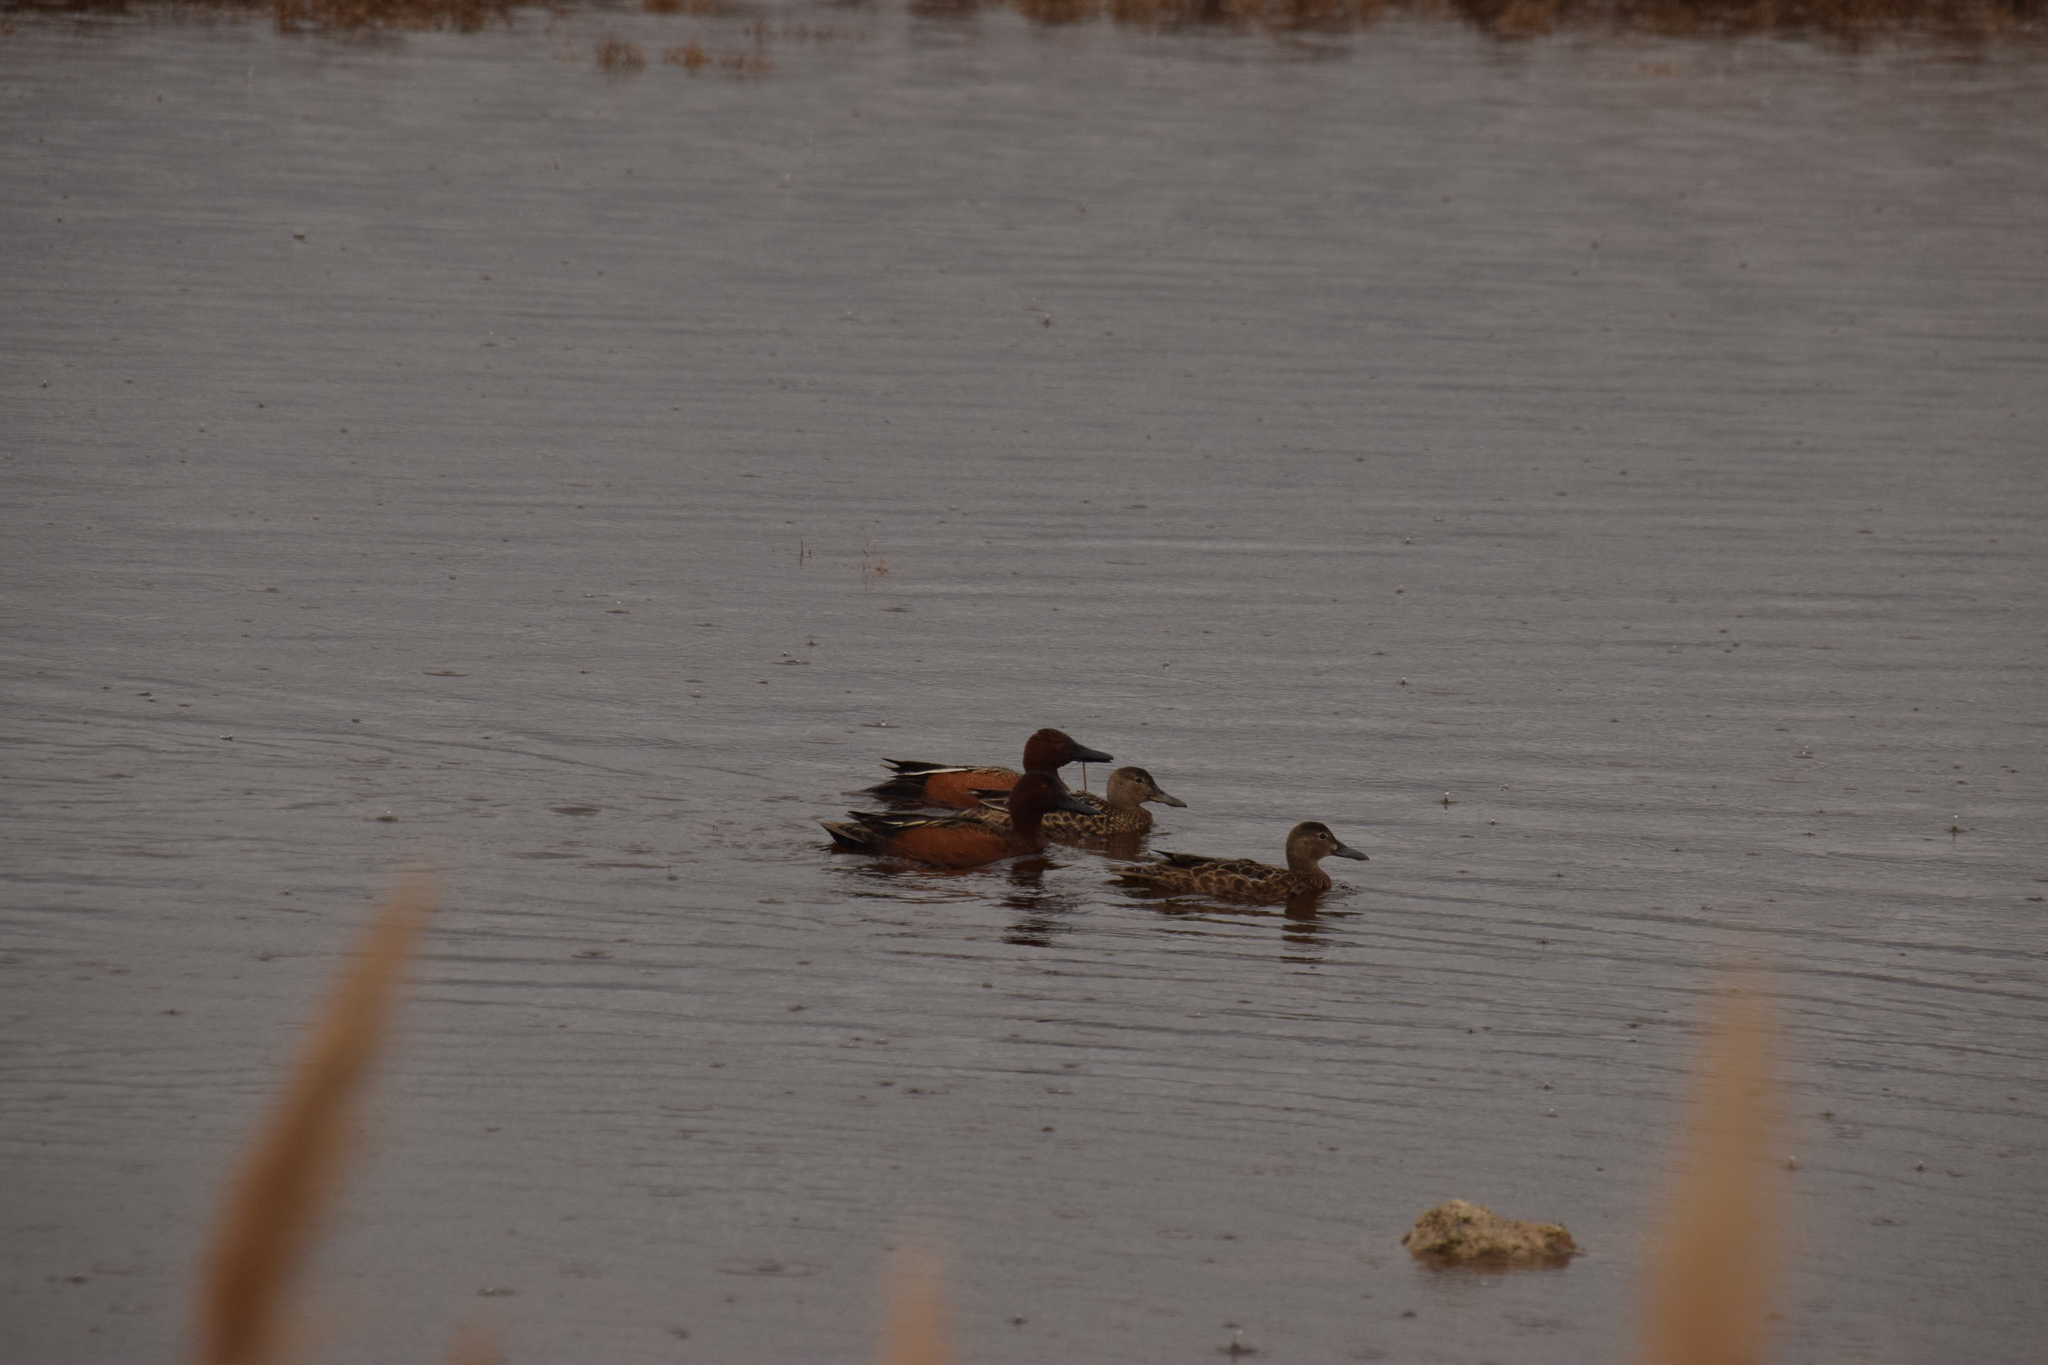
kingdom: Animalia
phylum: Chordata
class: Aves
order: Anseriformes
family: Anatidae
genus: Spatula
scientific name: Spatula cyanoptera
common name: Cinnamon teal
